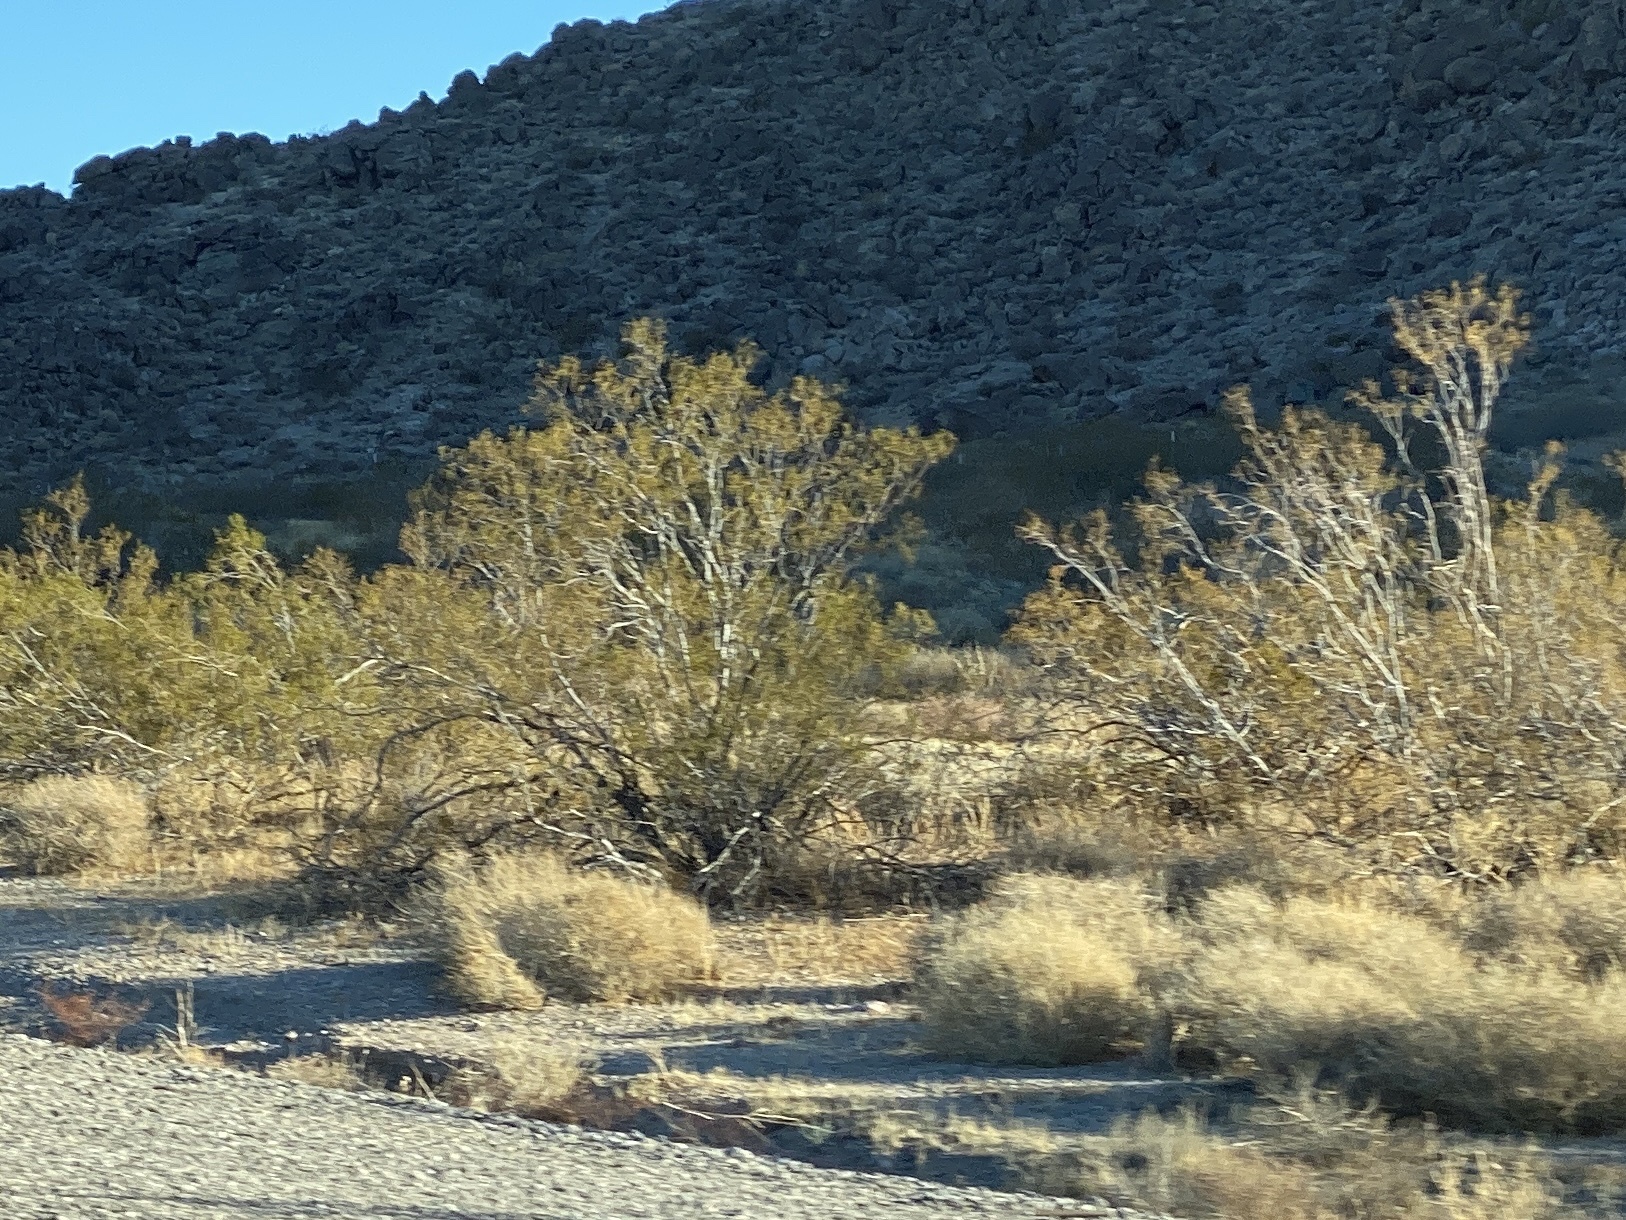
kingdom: Plantae
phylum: Tracheophyta
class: Magnoliopsida
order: Zygophyllales
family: Zygophyllaceae
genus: Larrea
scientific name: Larrea tridentata
